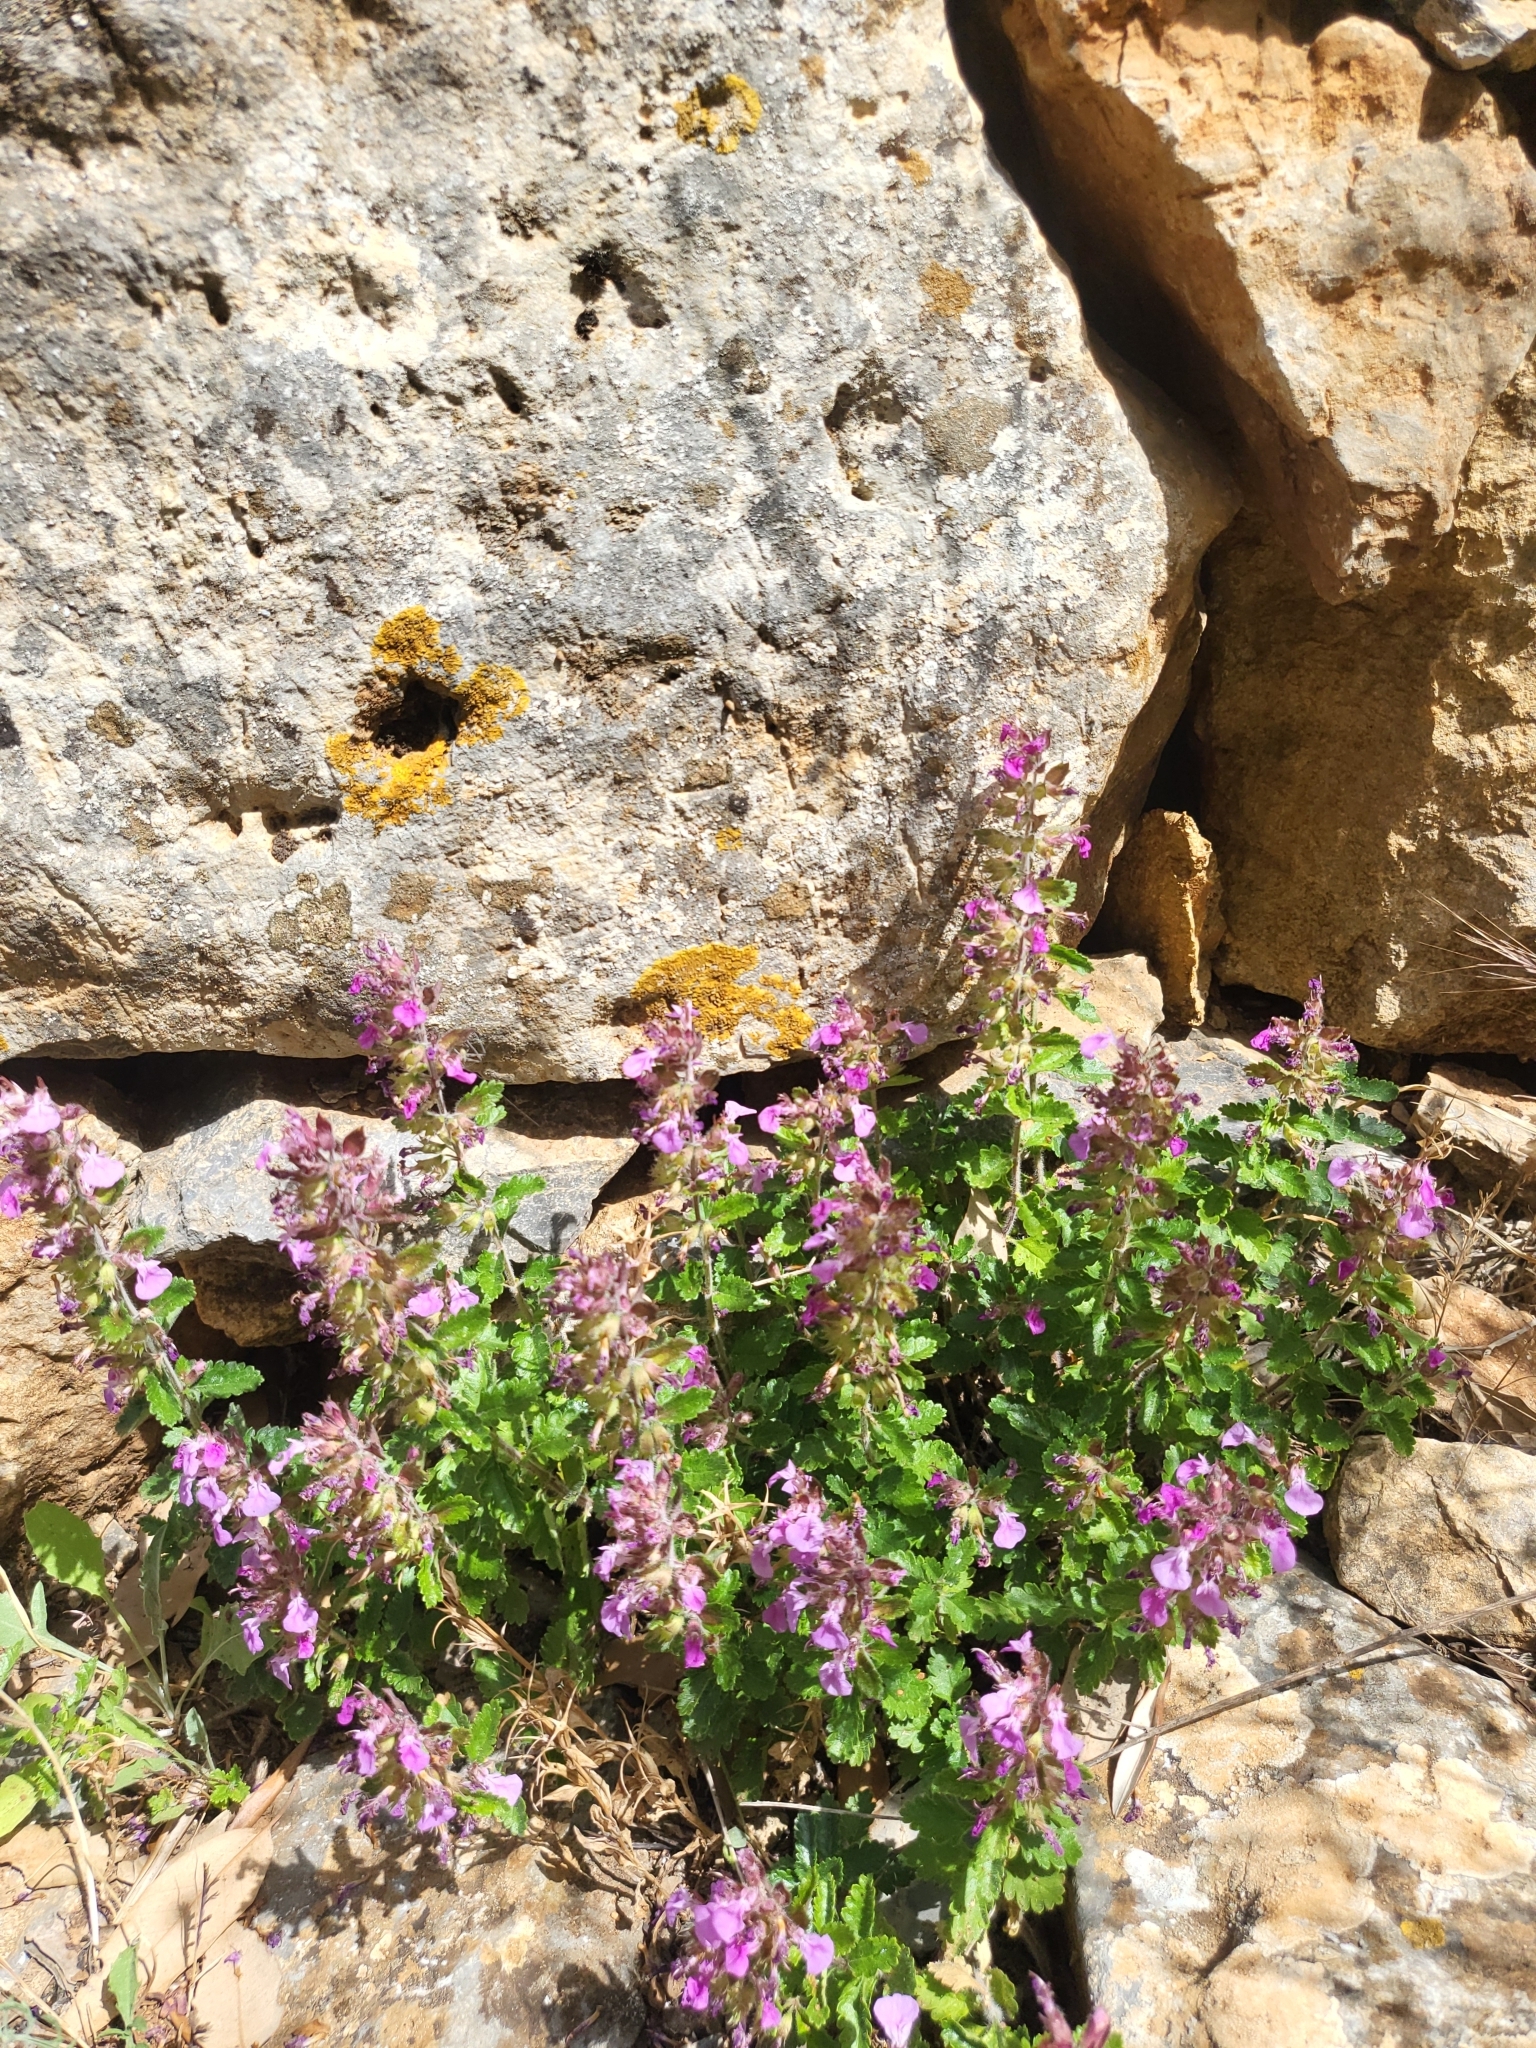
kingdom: Plantae
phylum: Tracheophyta
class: Magnoliopsida
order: Lamiales
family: Lamiaceae
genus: Teucrium
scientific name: Teucrium chamaedrys
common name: Wall germander
